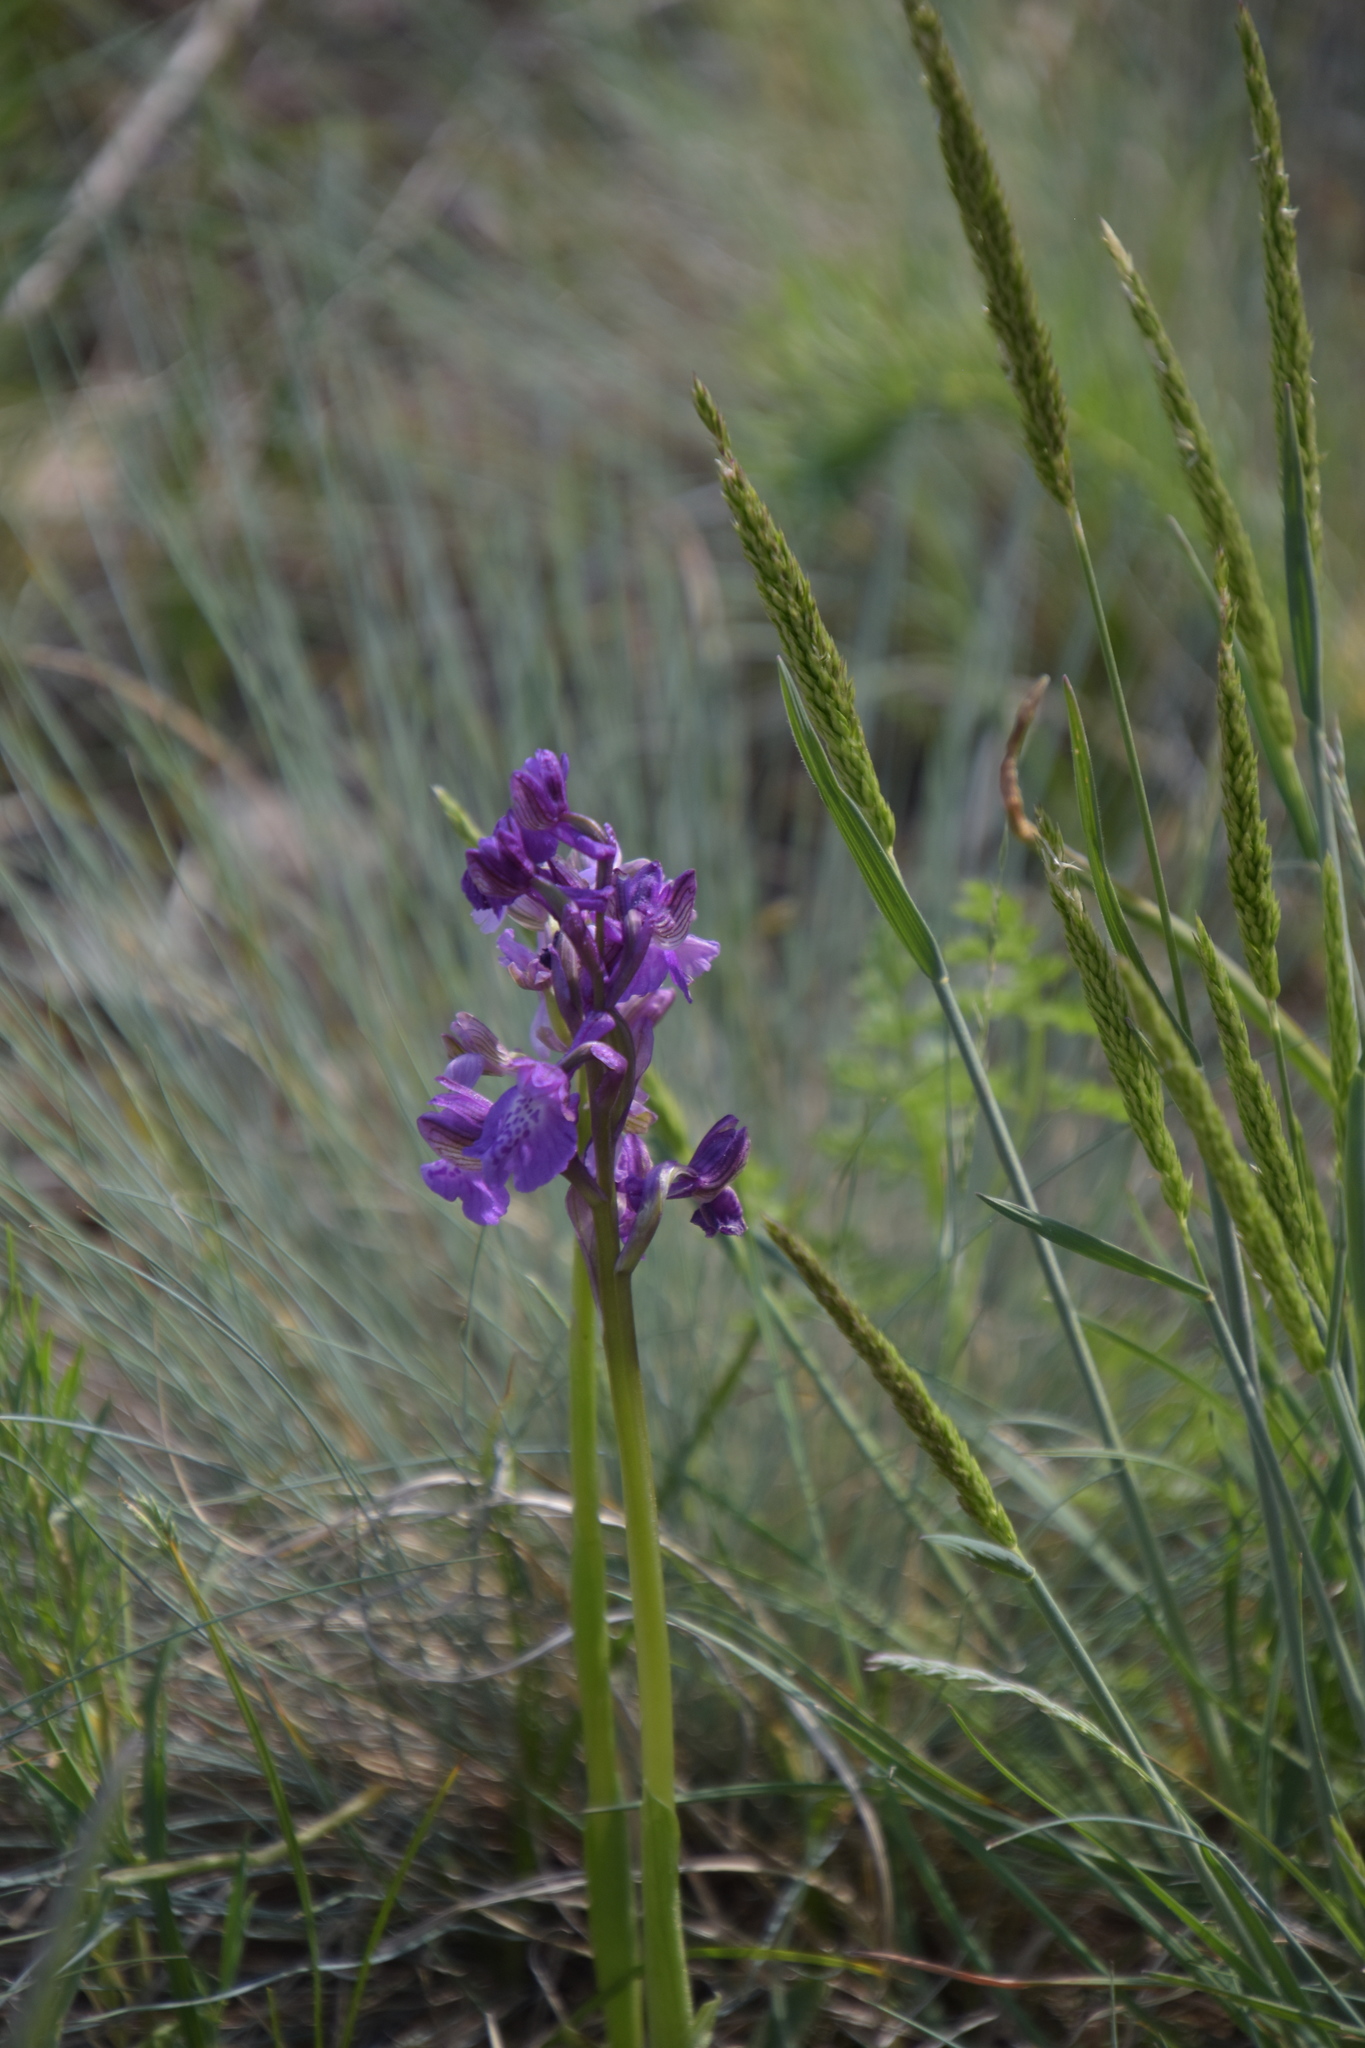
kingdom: Plantae
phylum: Tracheophyta
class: Liliopsida
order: Asparagales
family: Orchidaceae
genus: Anacamptis
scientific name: Anacamptis morio
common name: Green-winged orchid
